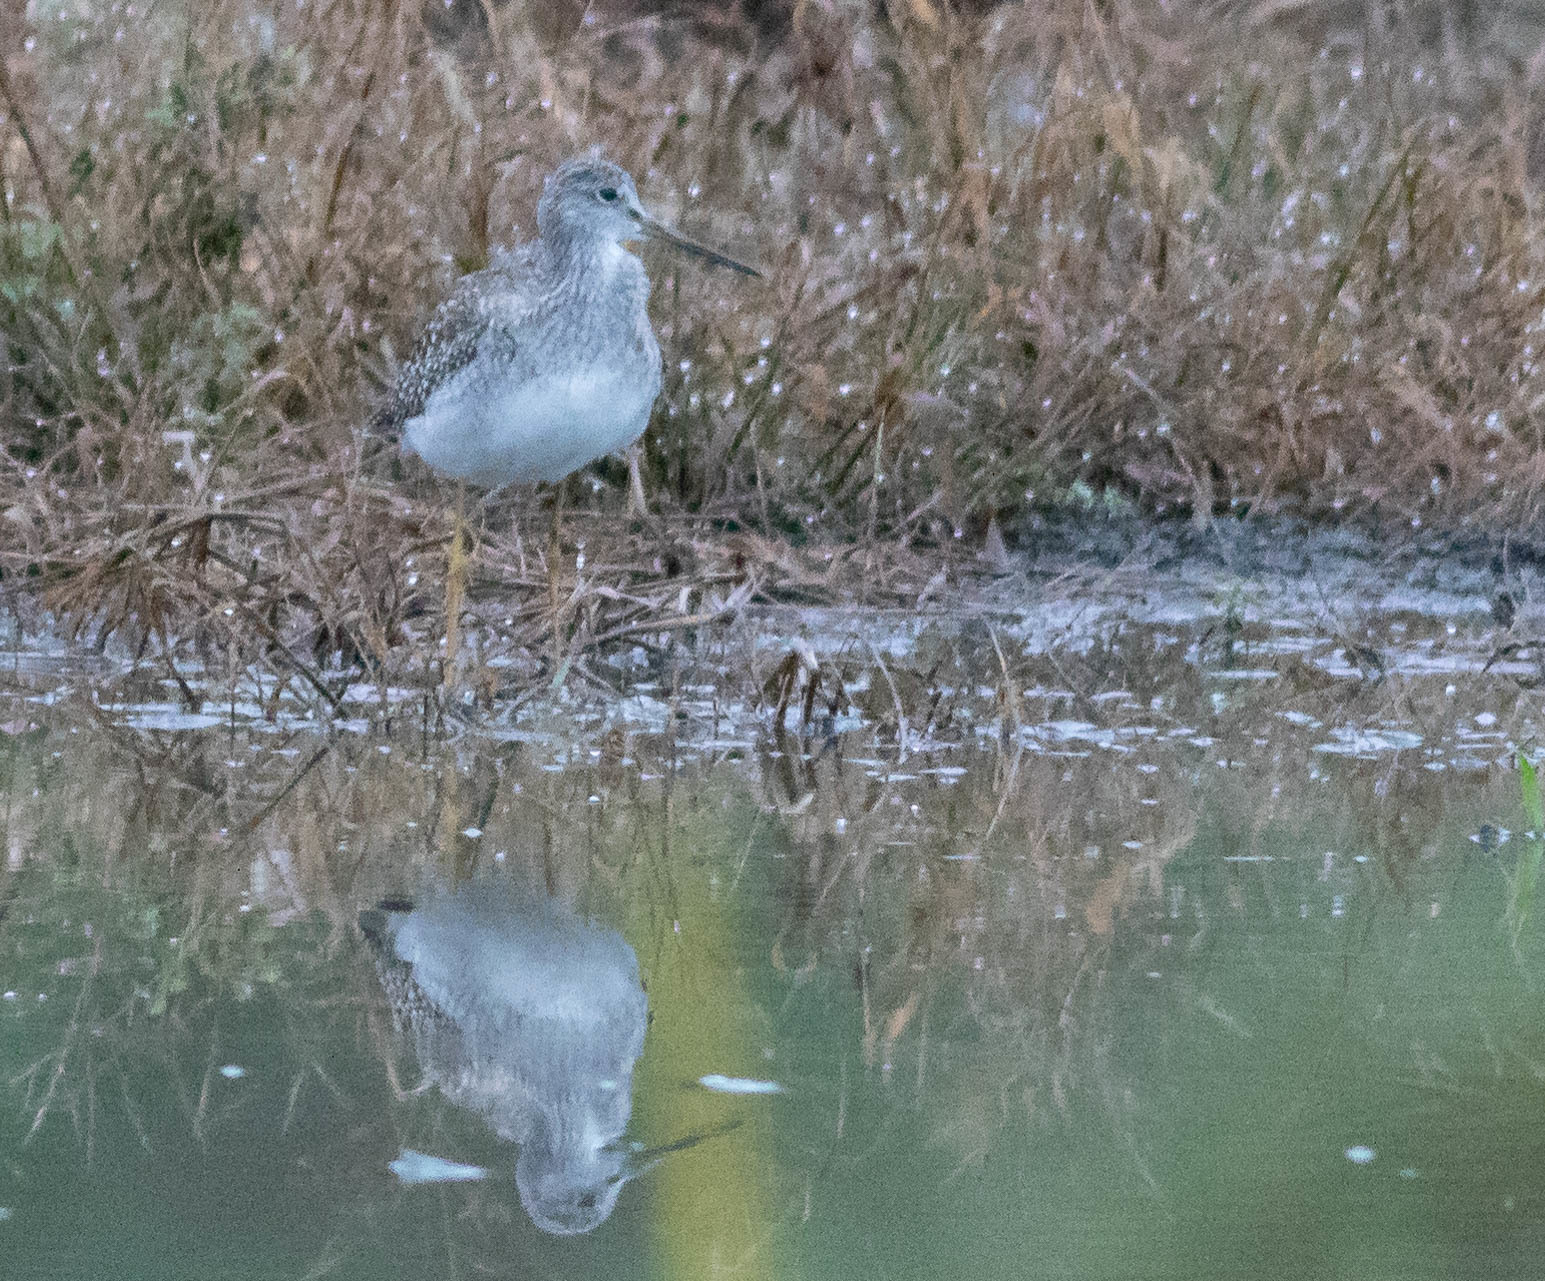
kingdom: Animalia
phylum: Chordata
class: Aves
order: Charadriiformes
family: Scolopacidae
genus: Tringa
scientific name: Tringa melanoleuca
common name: Greater yellowlegs
